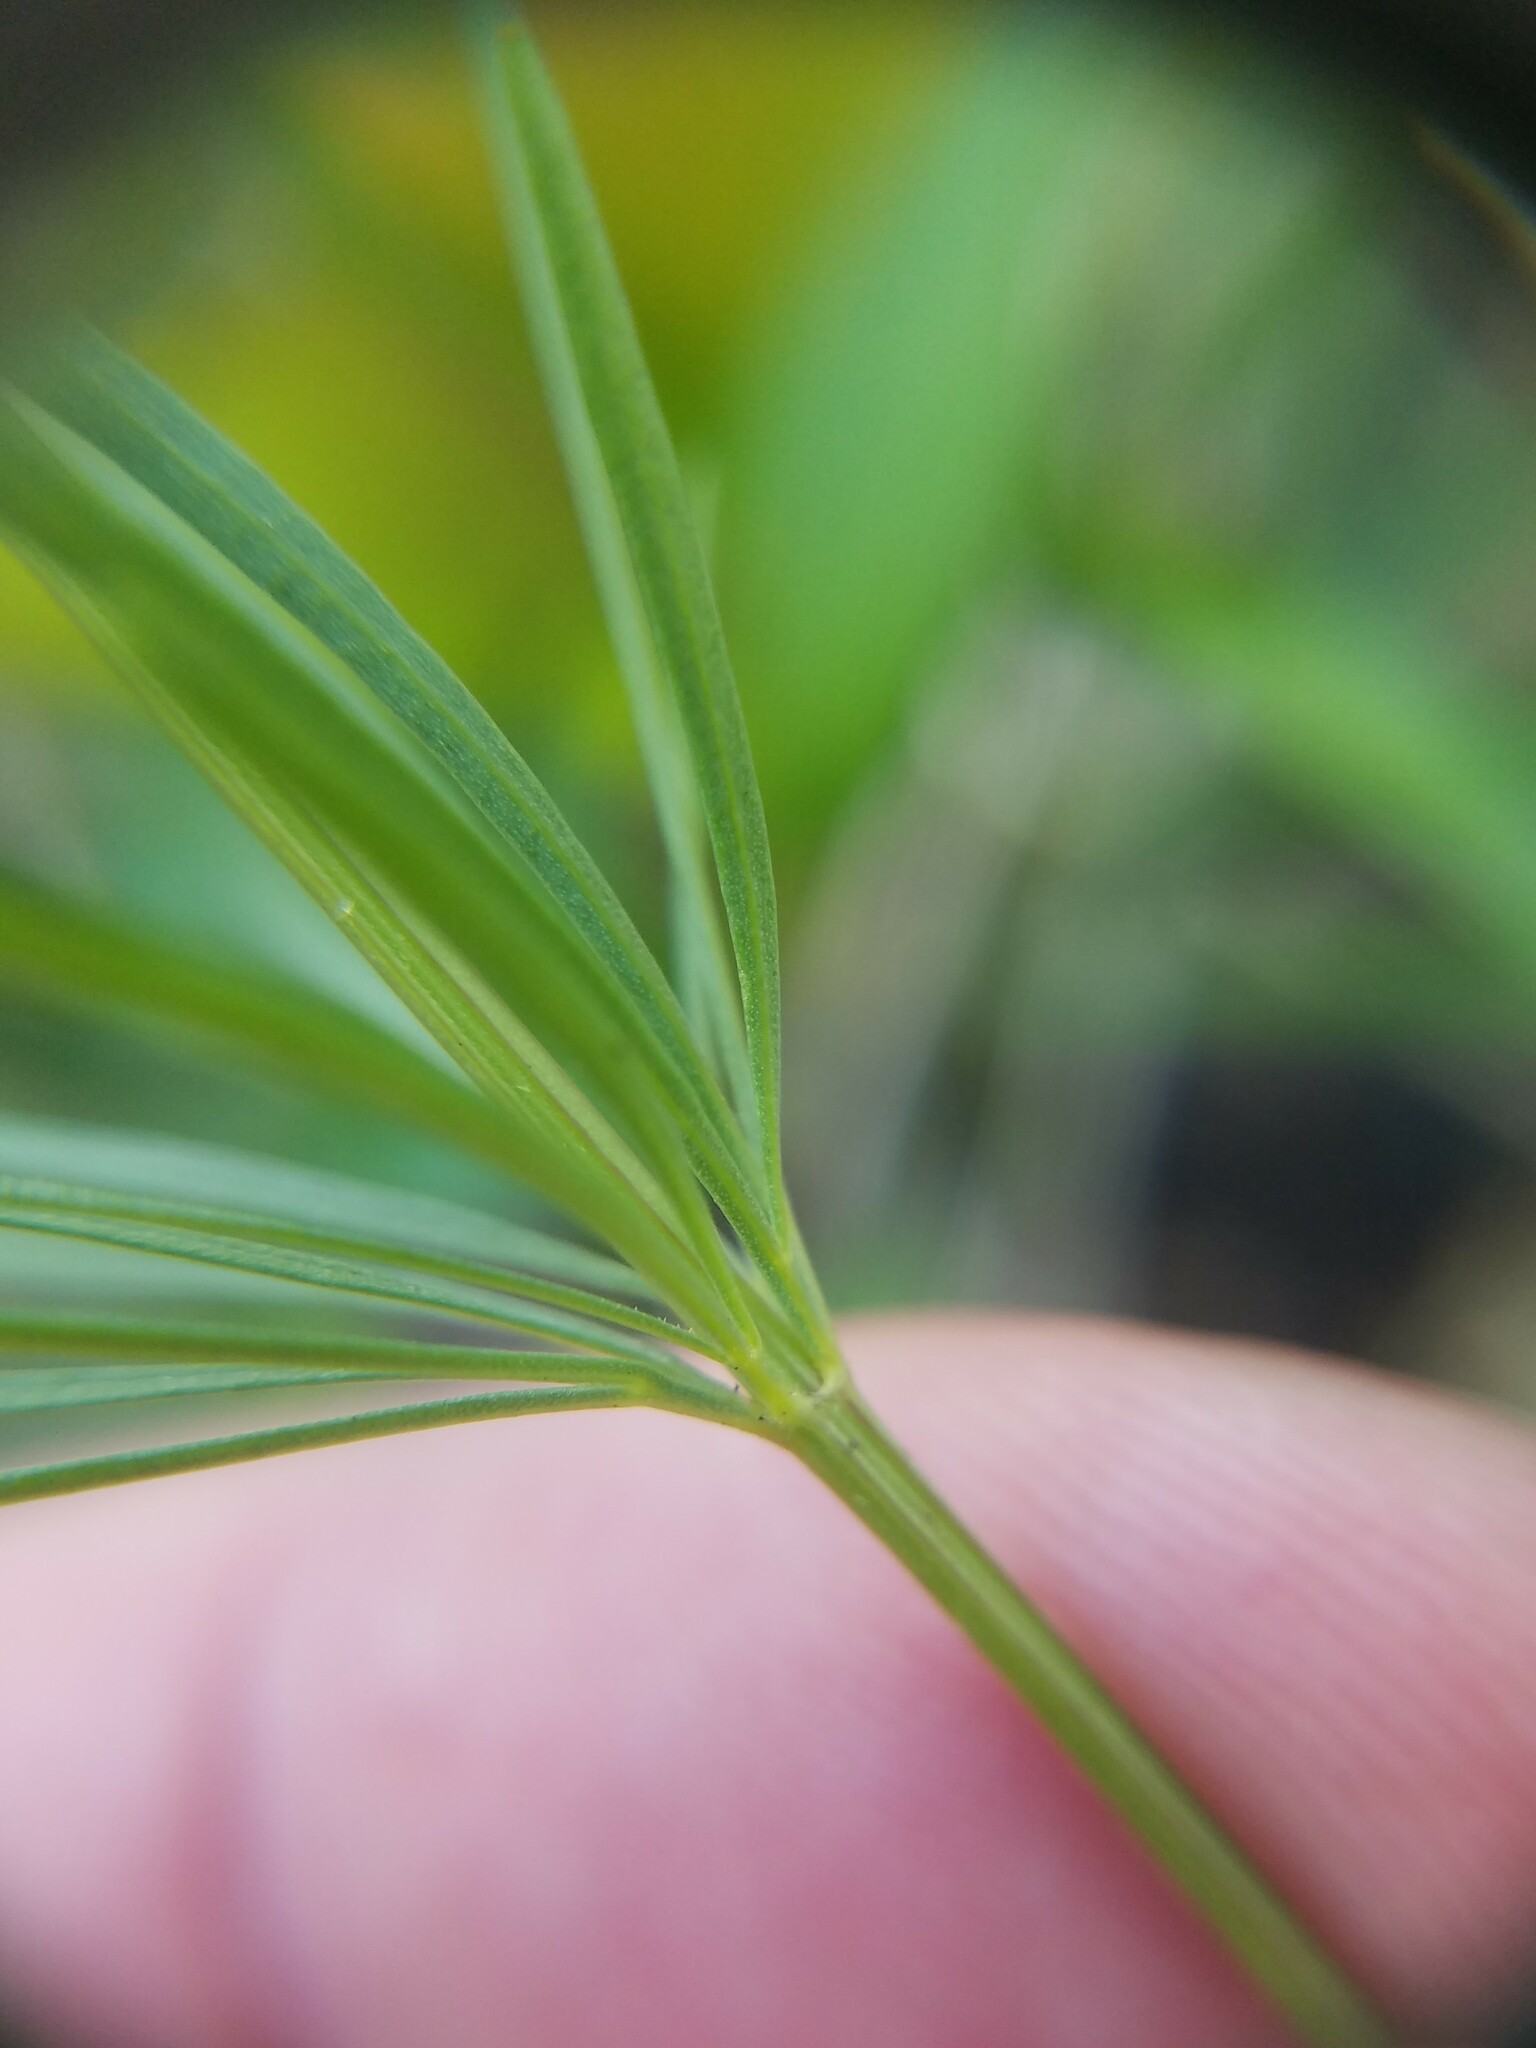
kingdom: Plantae
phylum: Tracheophyta
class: Magnoliopsida
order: Asterales
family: Asteraceae
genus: Coreopsis
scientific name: Coreopsis pulchra
